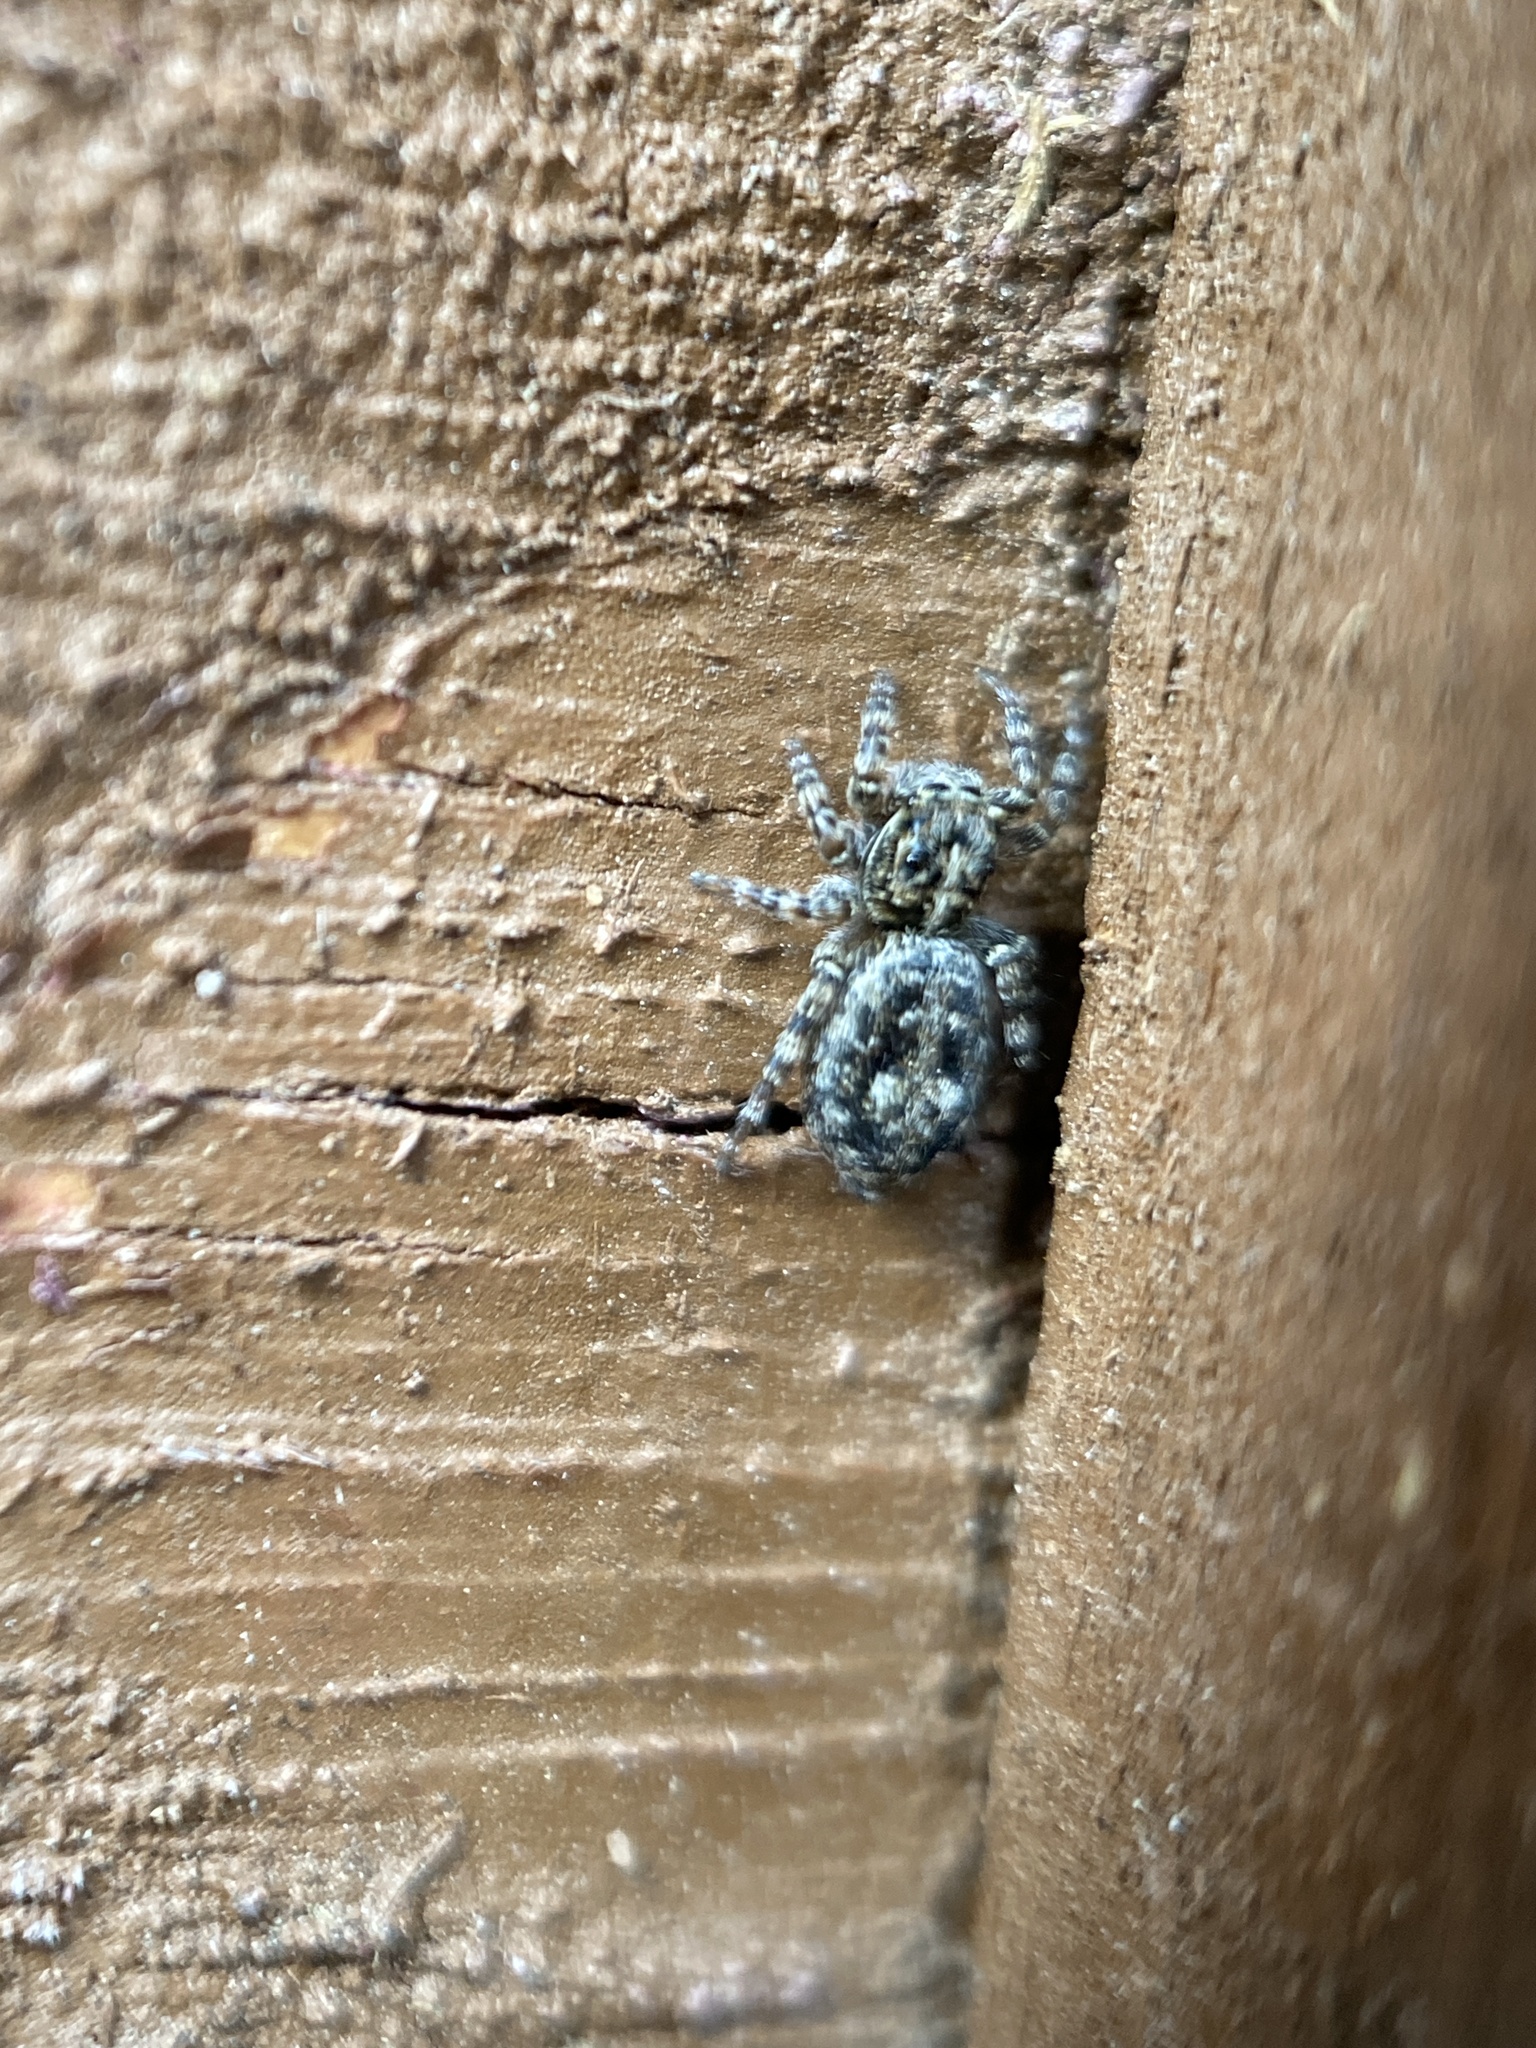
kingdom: Animalia
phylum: Arthropoda
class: Arachnida
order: Araneae
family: Salticidae
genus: Attulus
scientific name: Attulus terebratus
